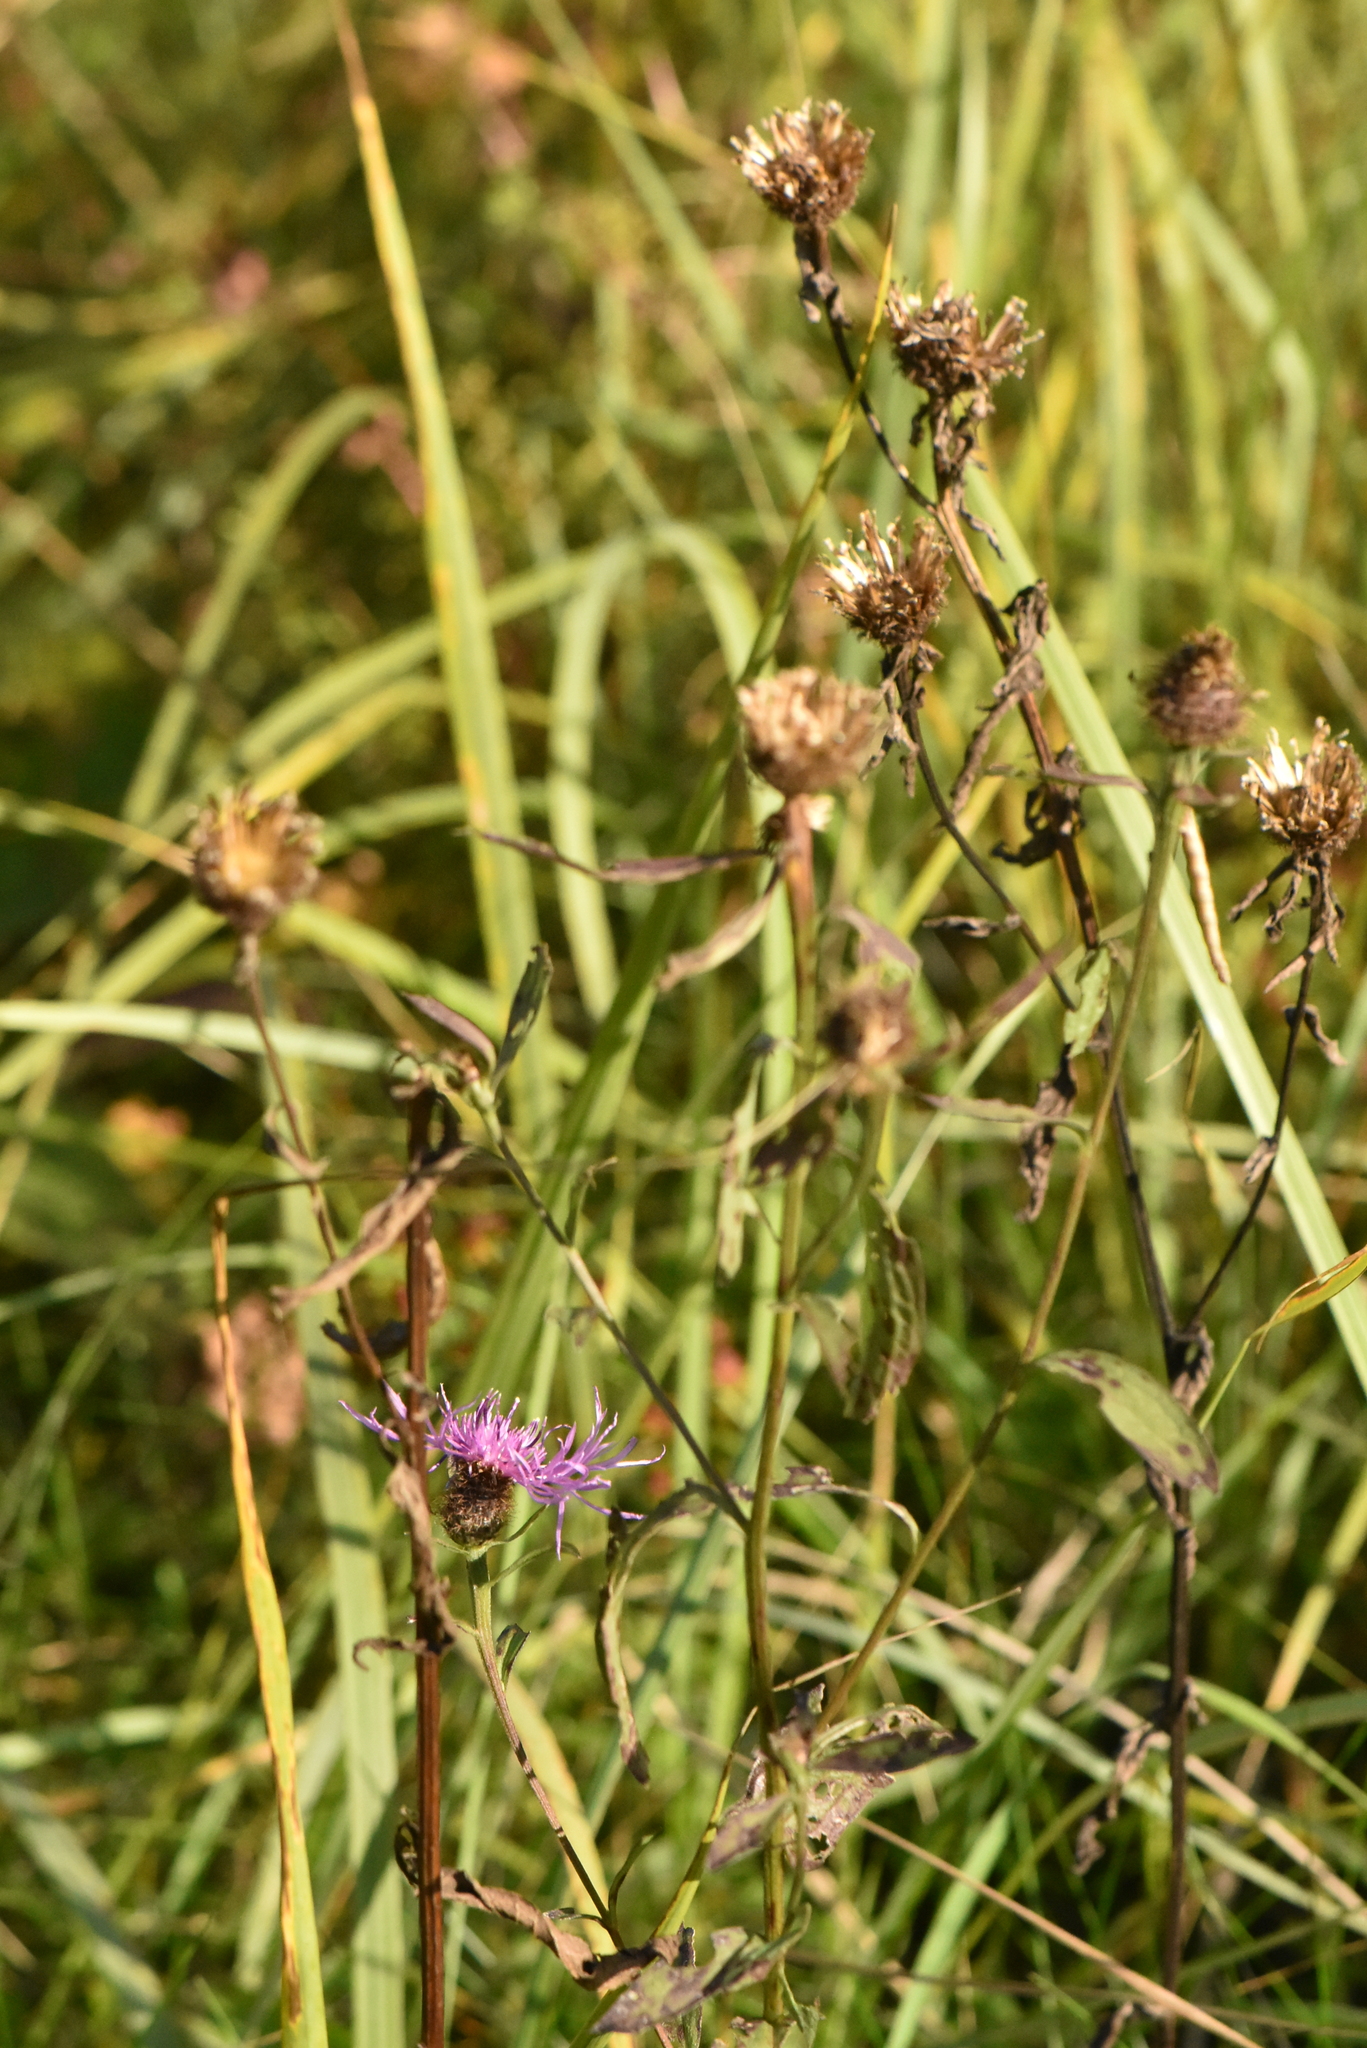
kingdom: Plantae
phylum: Tracheophyta
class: Magnoliopsida
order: Asterales
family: Asteraceae
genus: Centaurea
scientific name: Centaurea pseudophrygia
